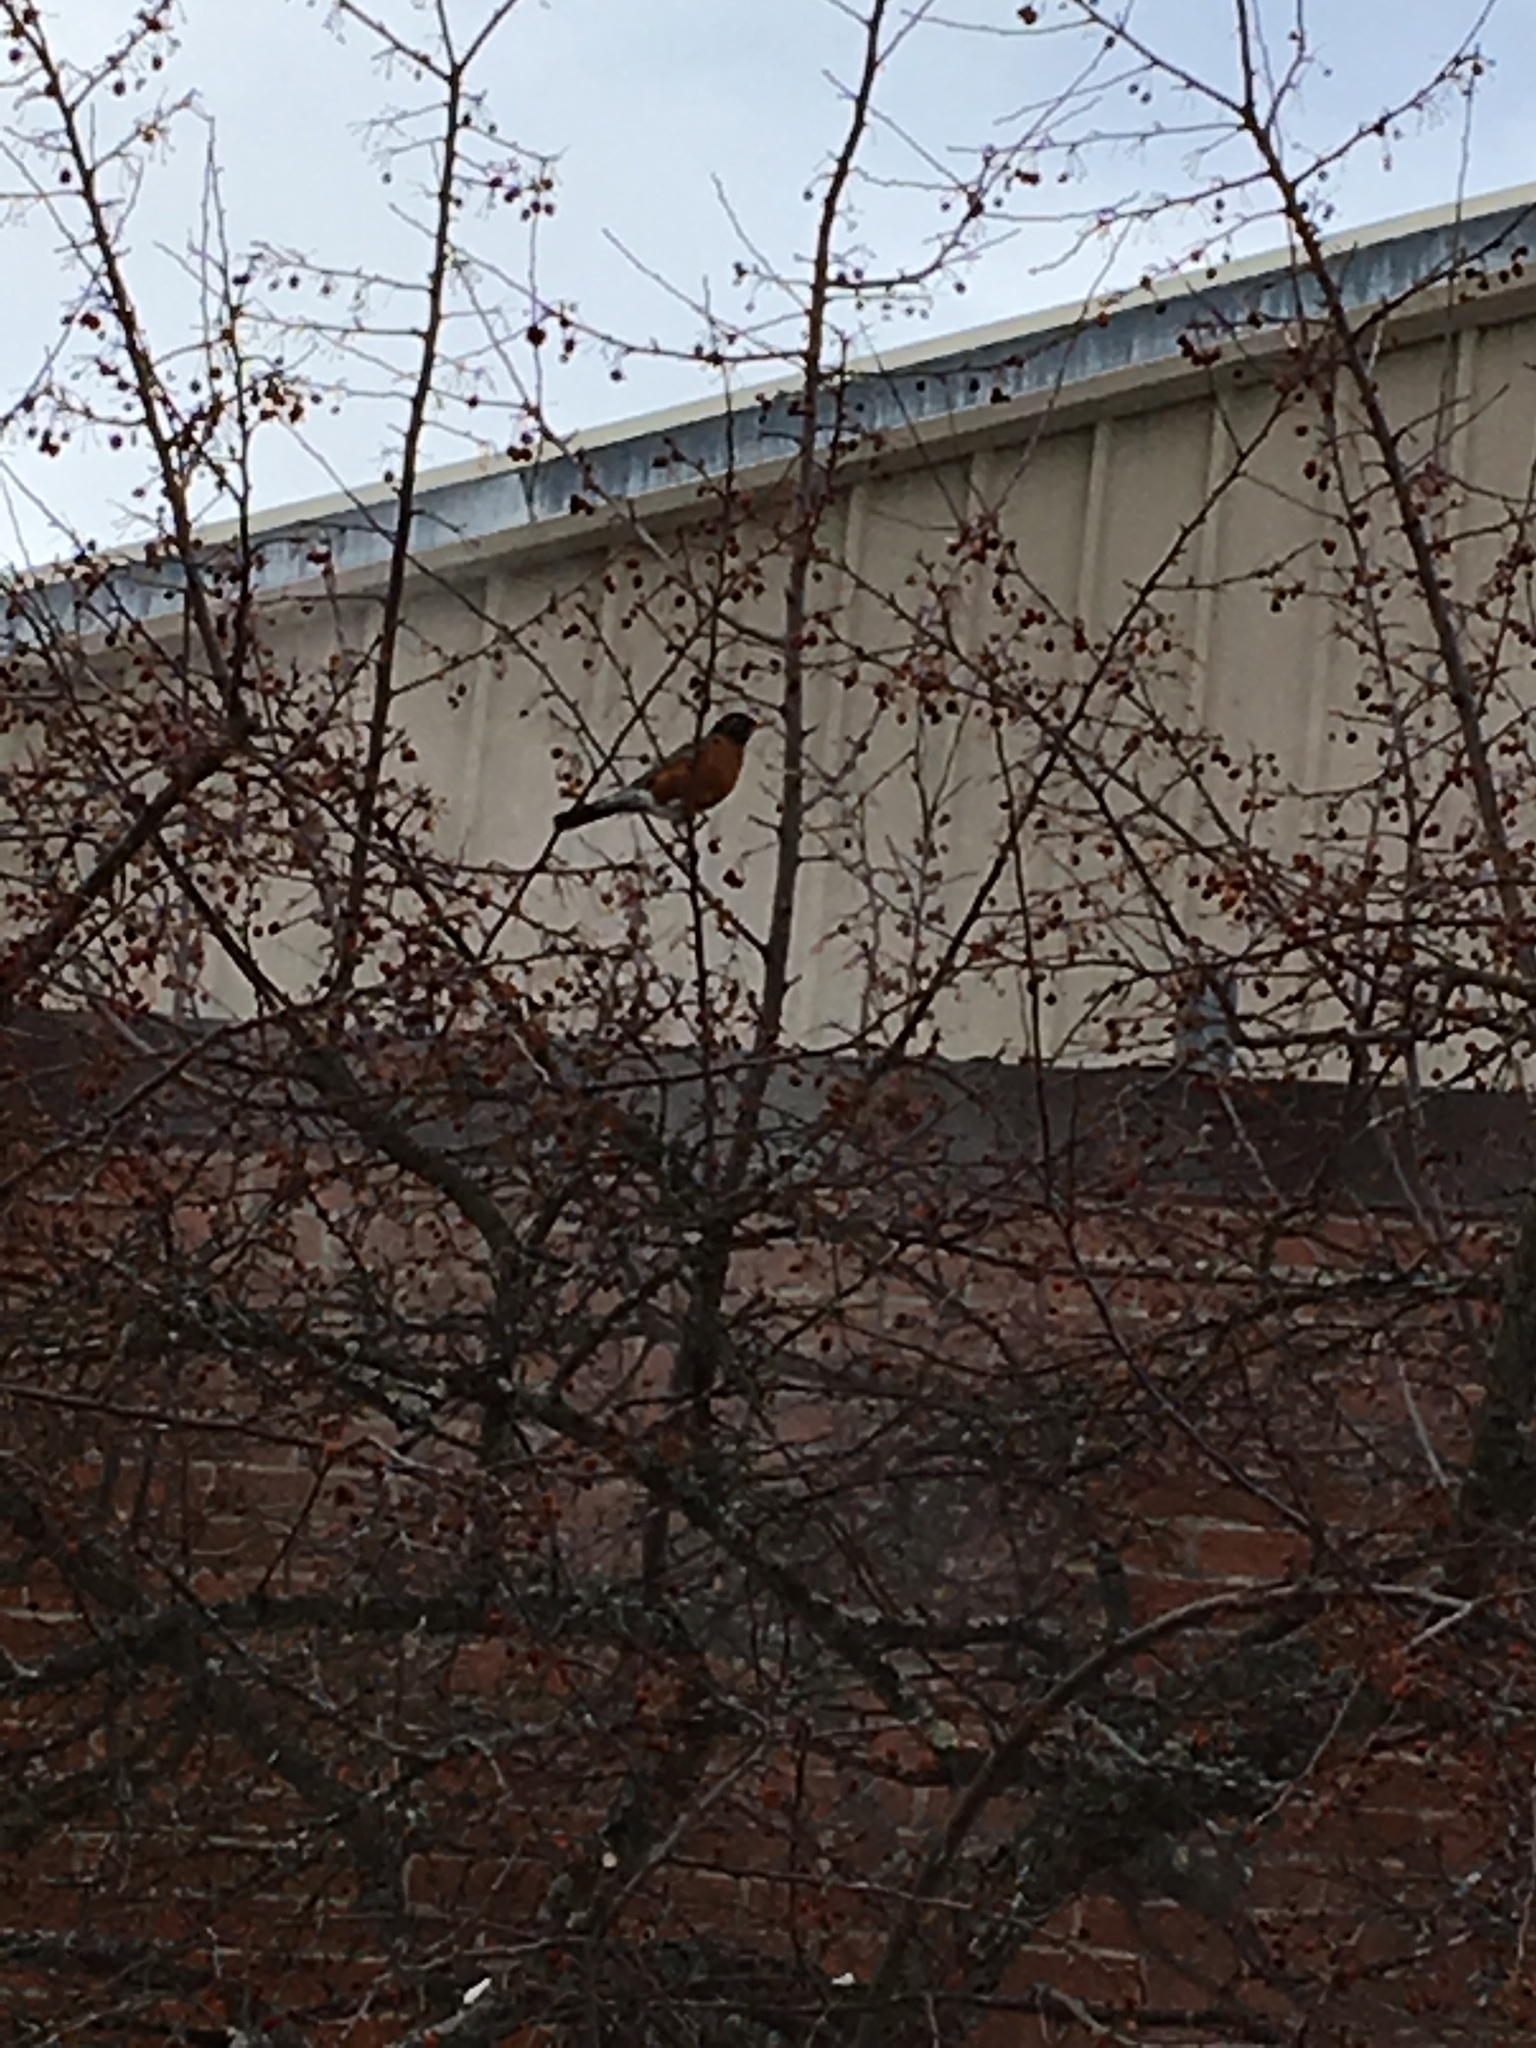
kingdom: Animalia
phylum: Chordata
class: Aves
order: Passeriformes
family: Turdidae
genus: Turdus
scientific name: Turdus migratorius
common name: American robin
